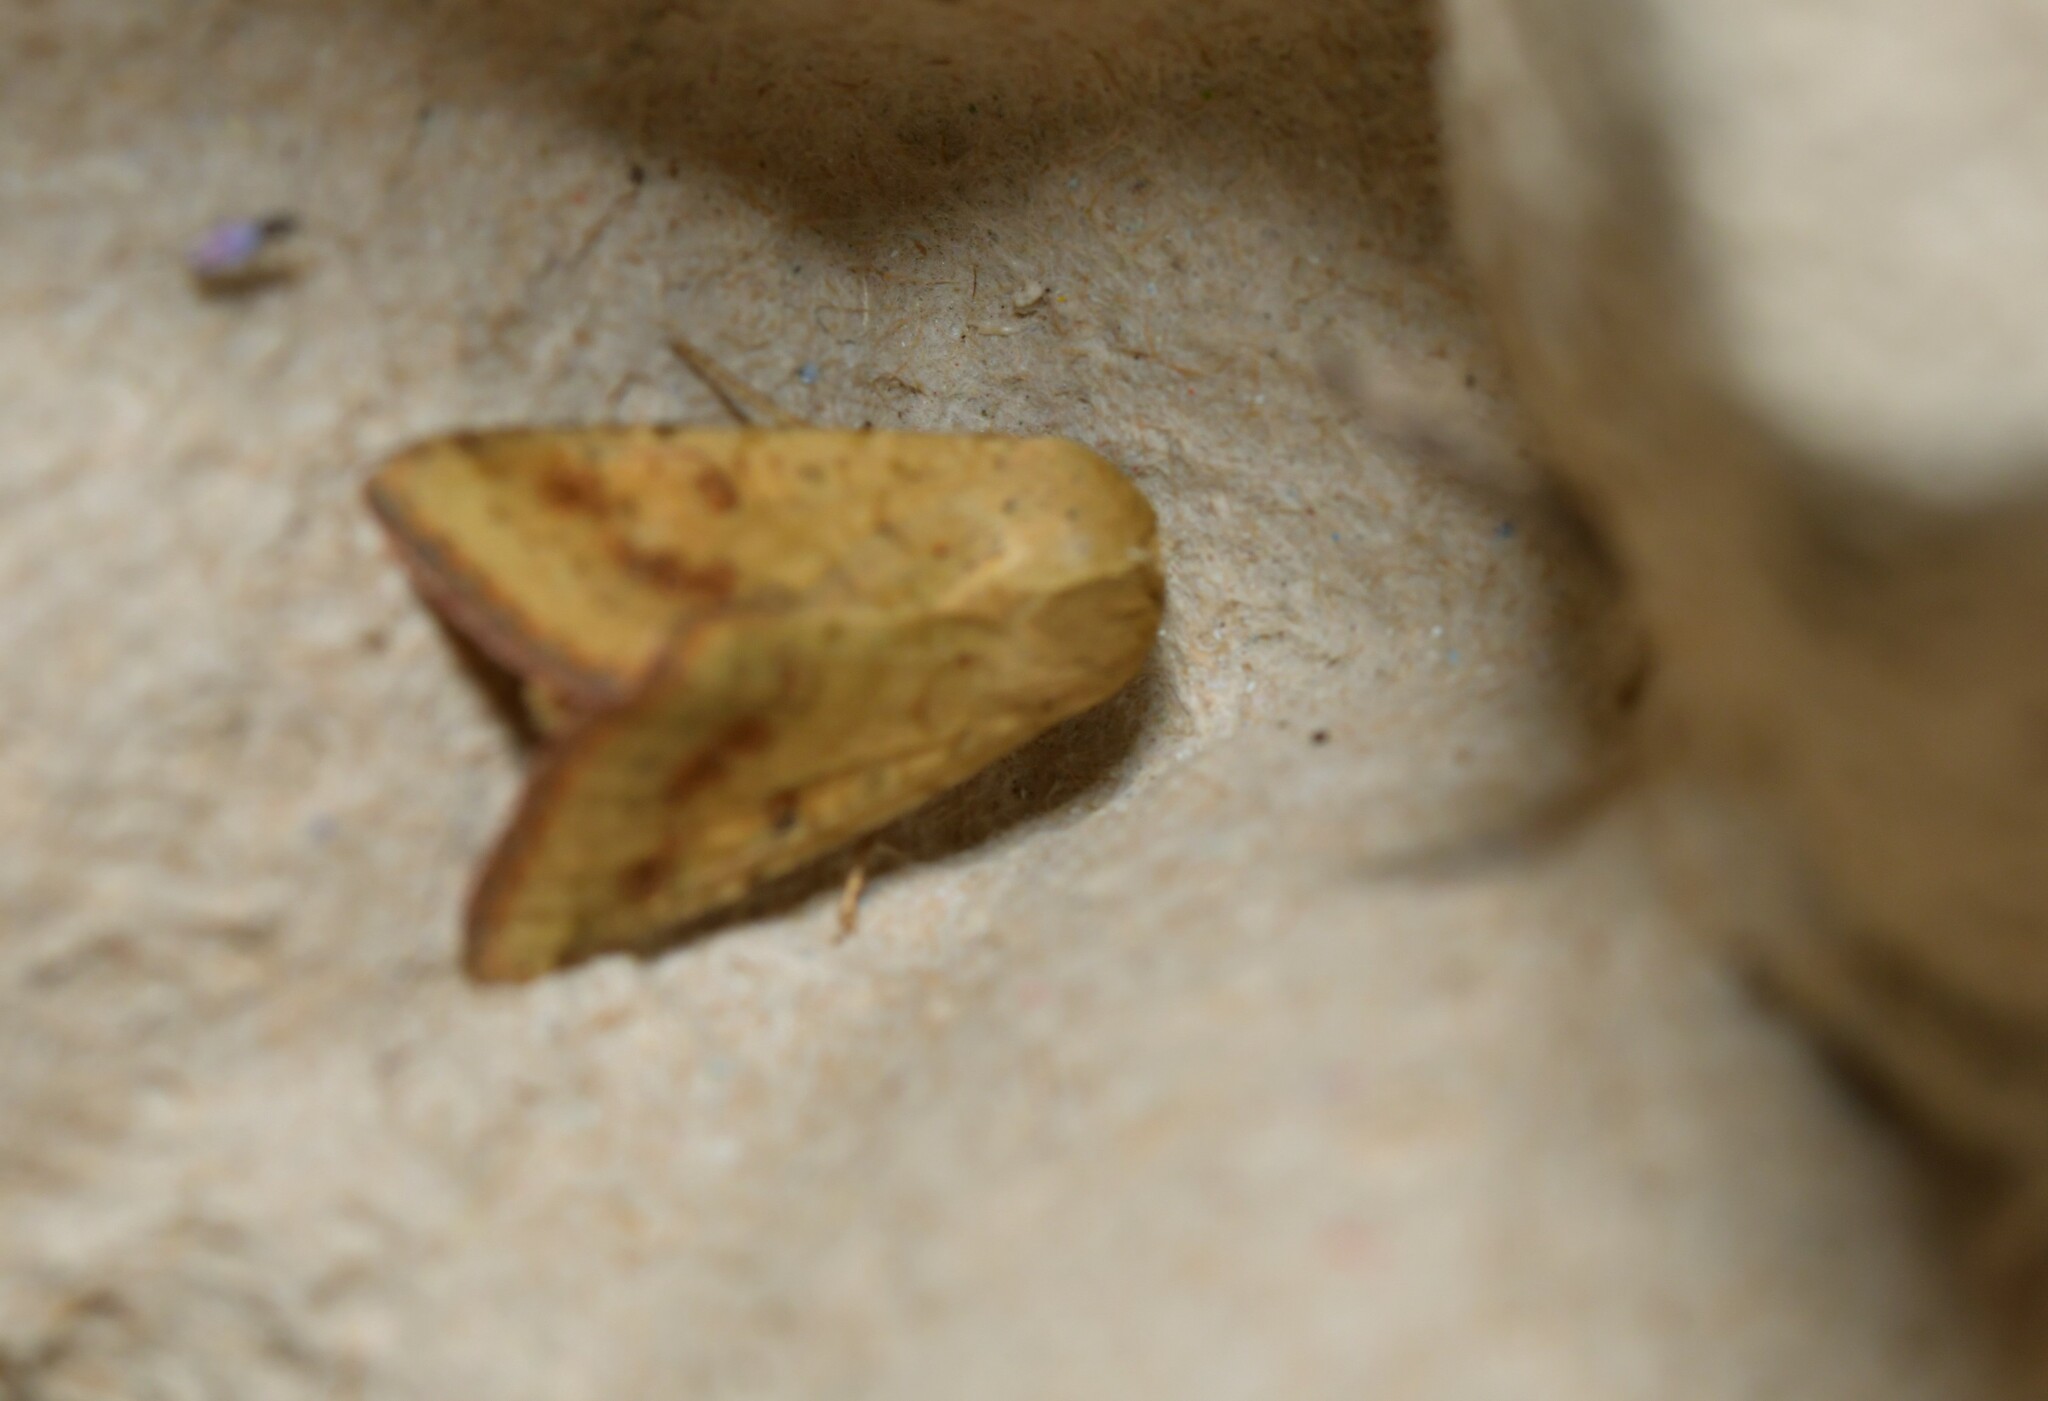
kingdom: Animalia
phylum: Arthropoda
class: Insecta
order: Lepidoptera
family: Noctuidae
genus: Helicoverpa
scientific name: Helicoverpa armigera
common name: Cotton bollworm
